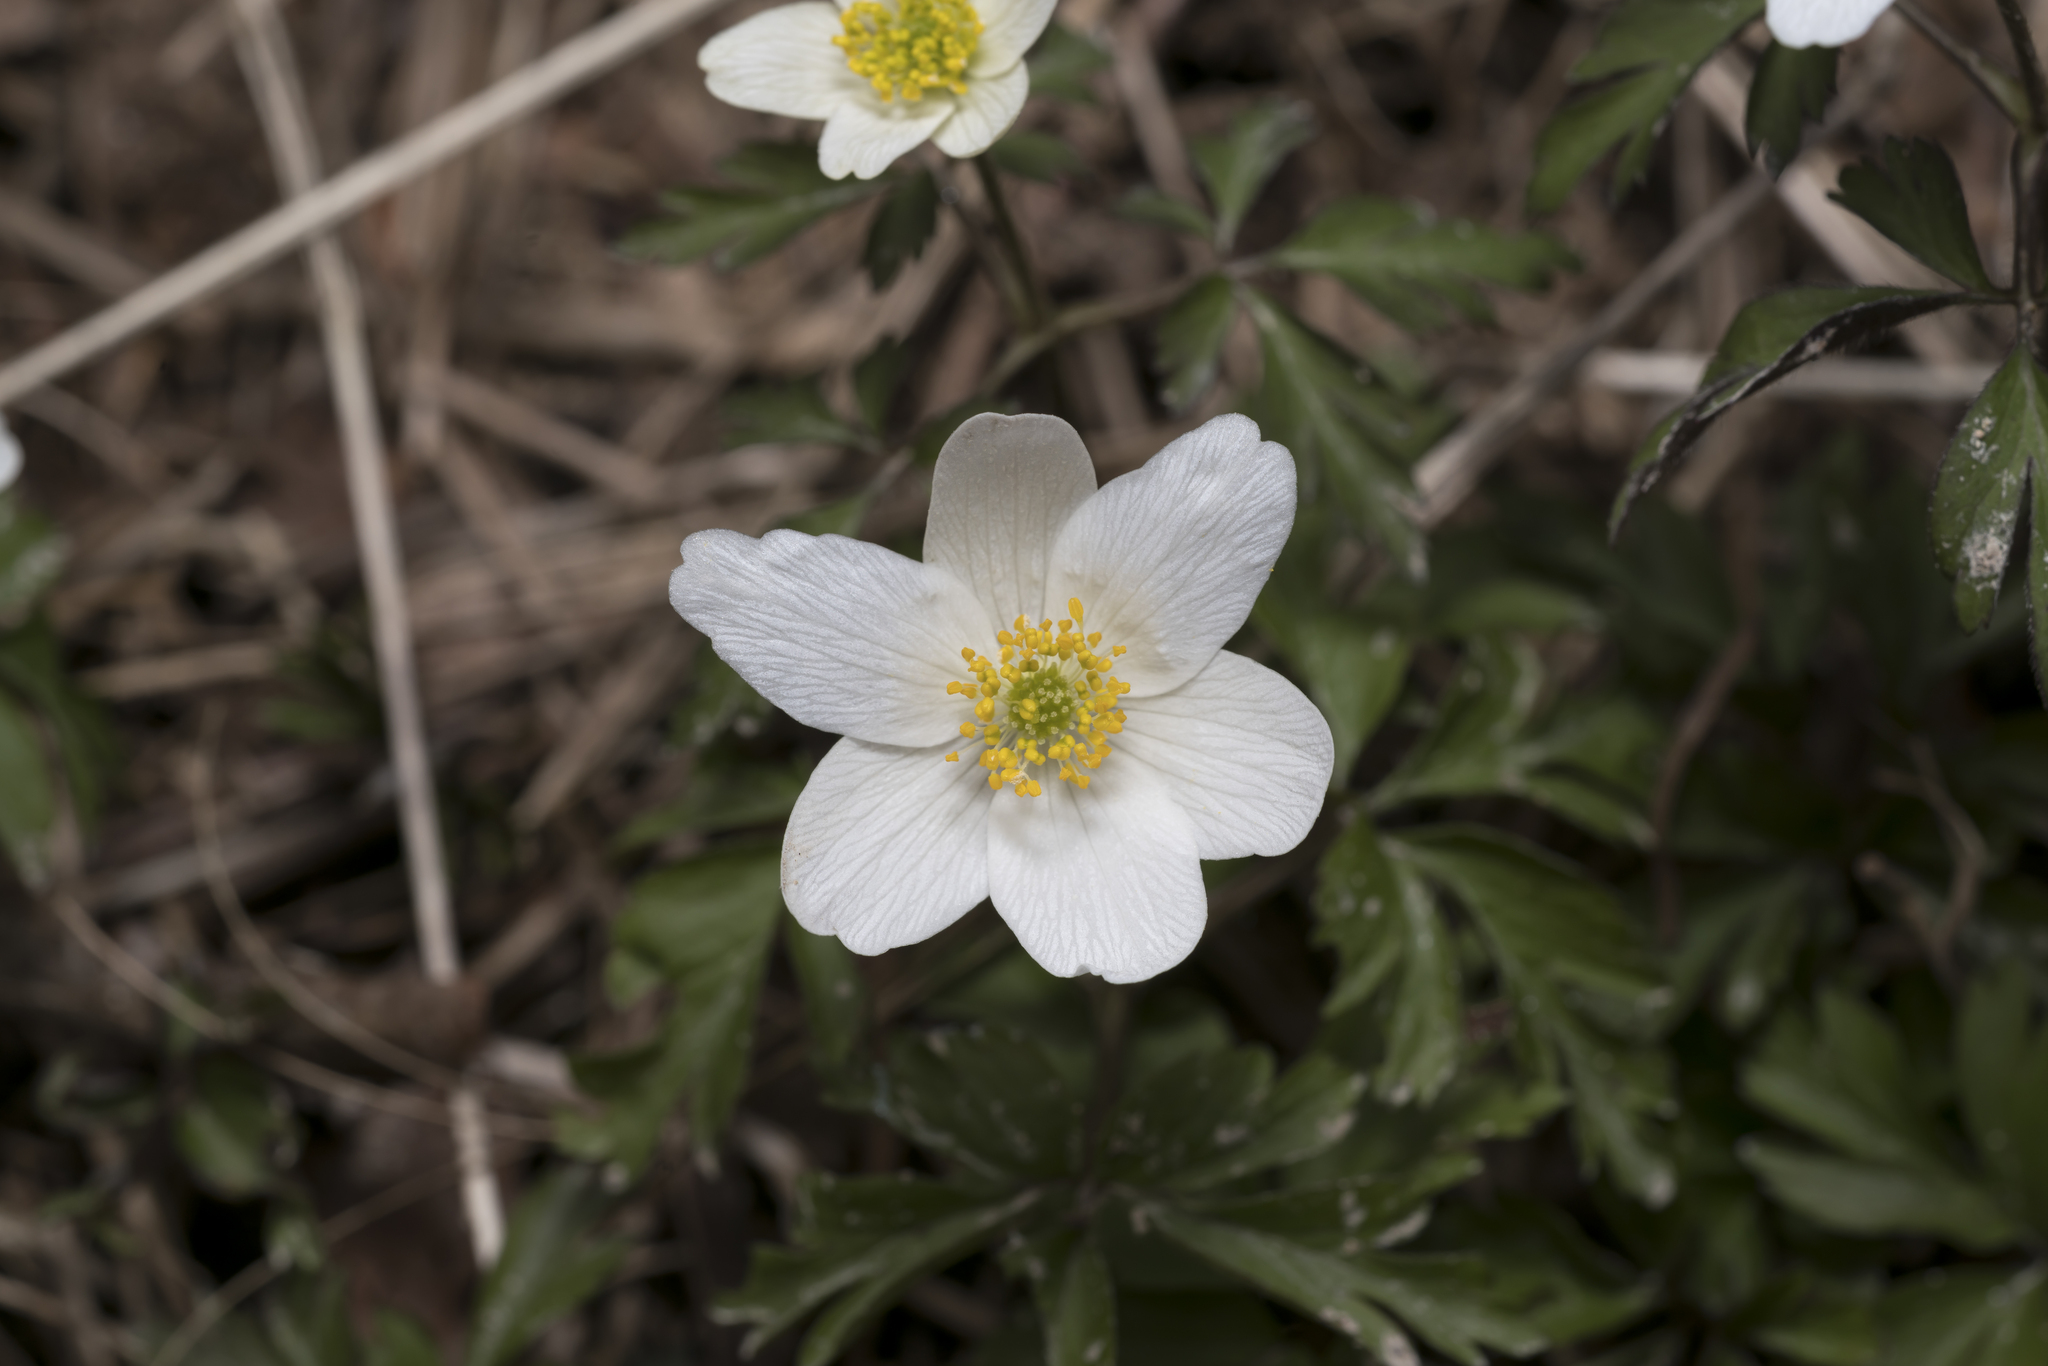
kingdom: Plantae
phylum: Tracheophyta
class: Magnoliopsida
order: Ranunculales
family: Ranunculaceae
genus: Anemone
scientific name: Anemone nemorosa
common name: Wood anemone
